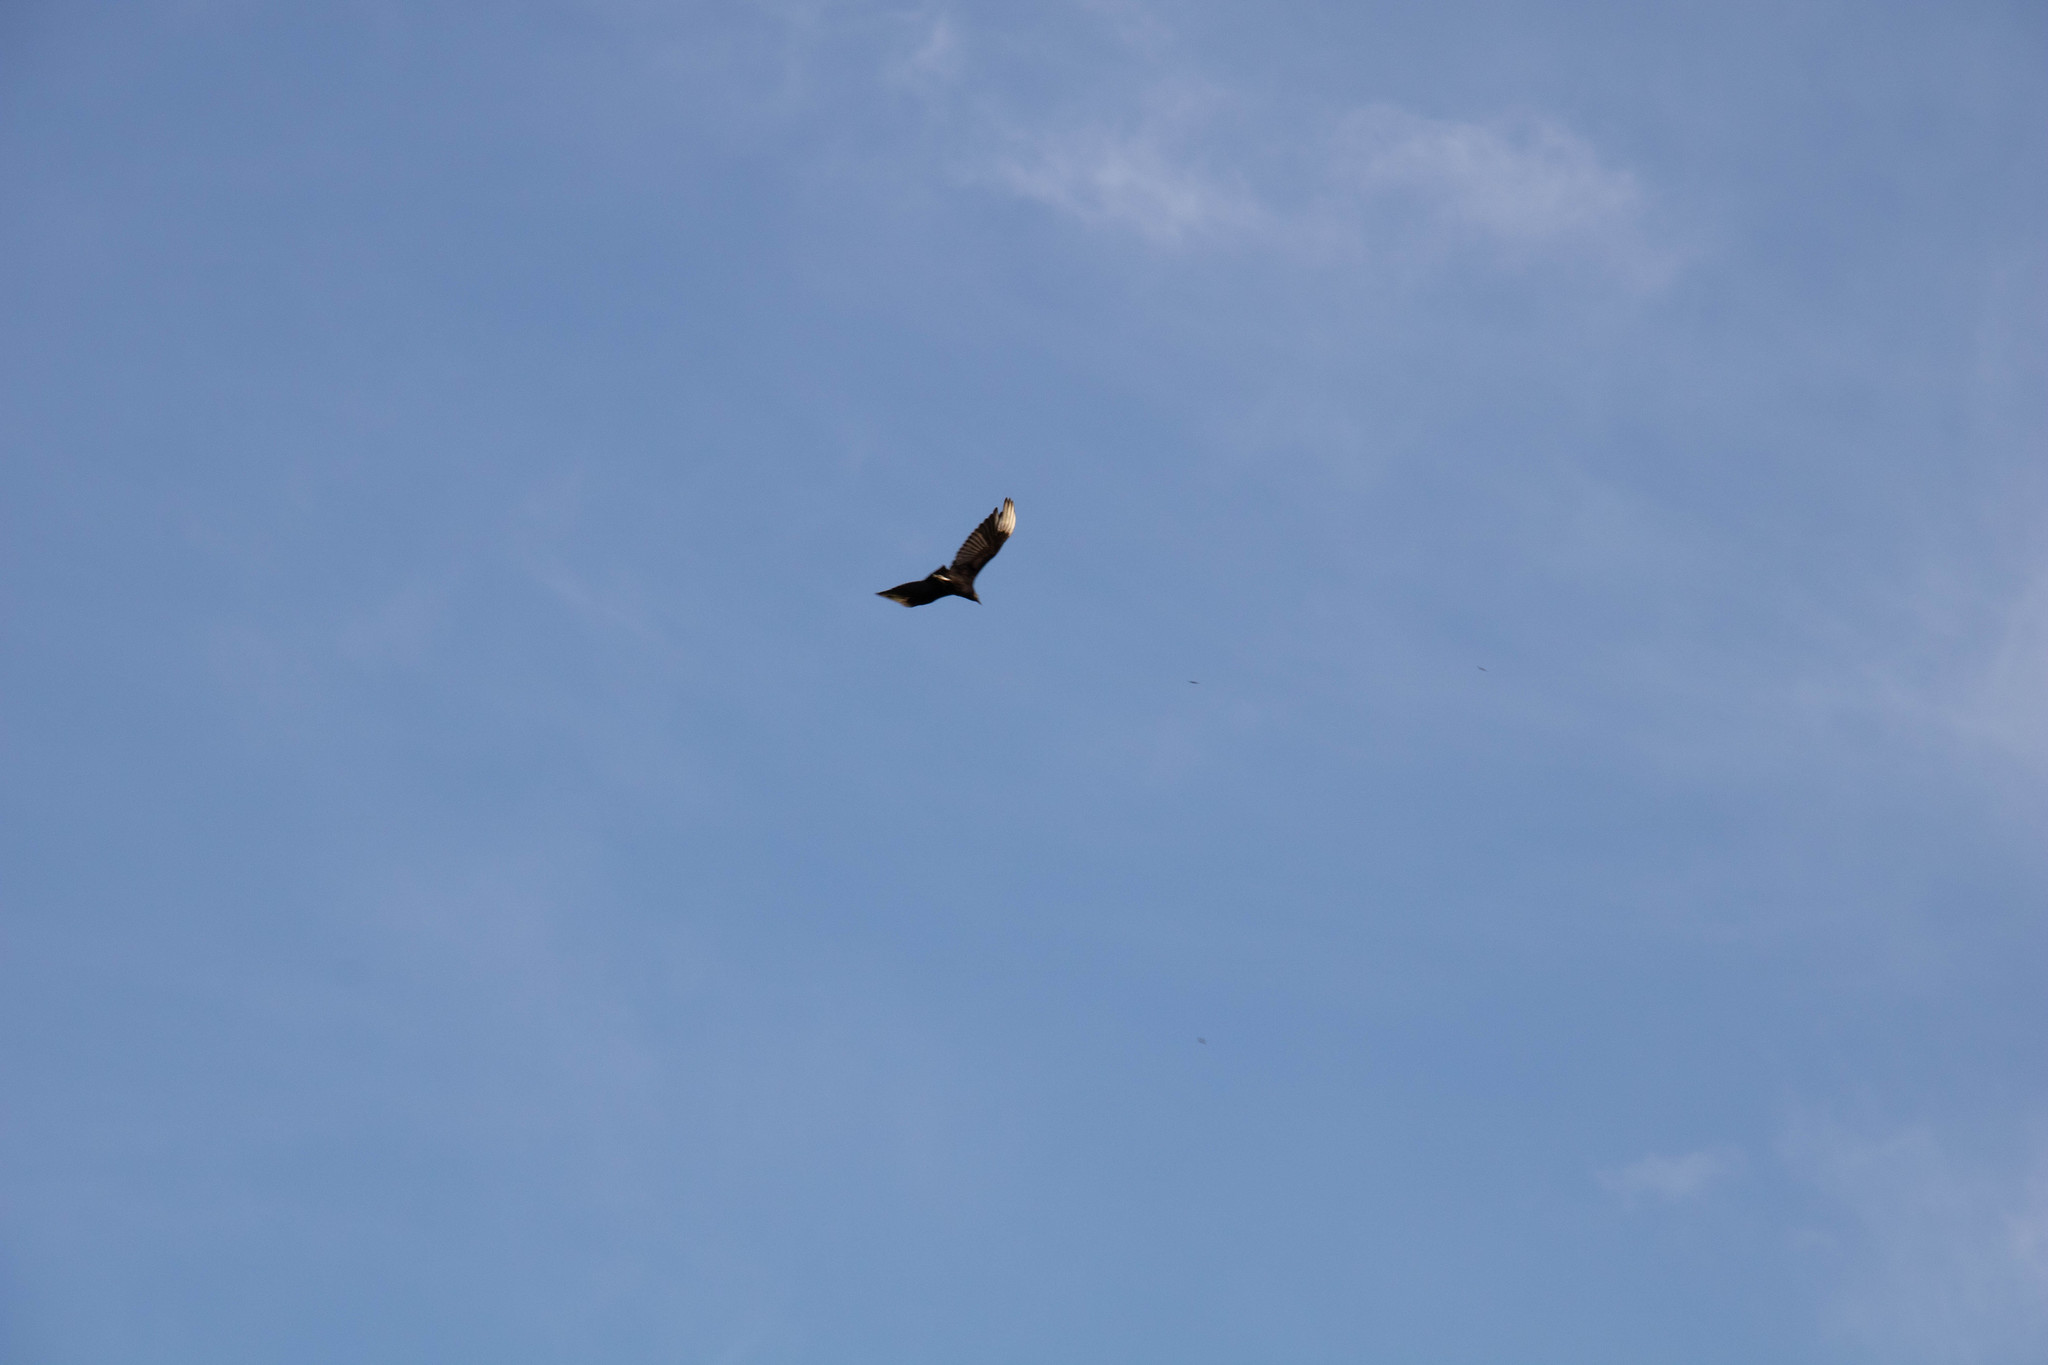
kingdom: Animalia
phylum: Chordata
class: Aves
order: Accipitriformes
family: Cathartidae
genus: Coragyps
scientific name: Coragyps atratus
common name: Black vulture
